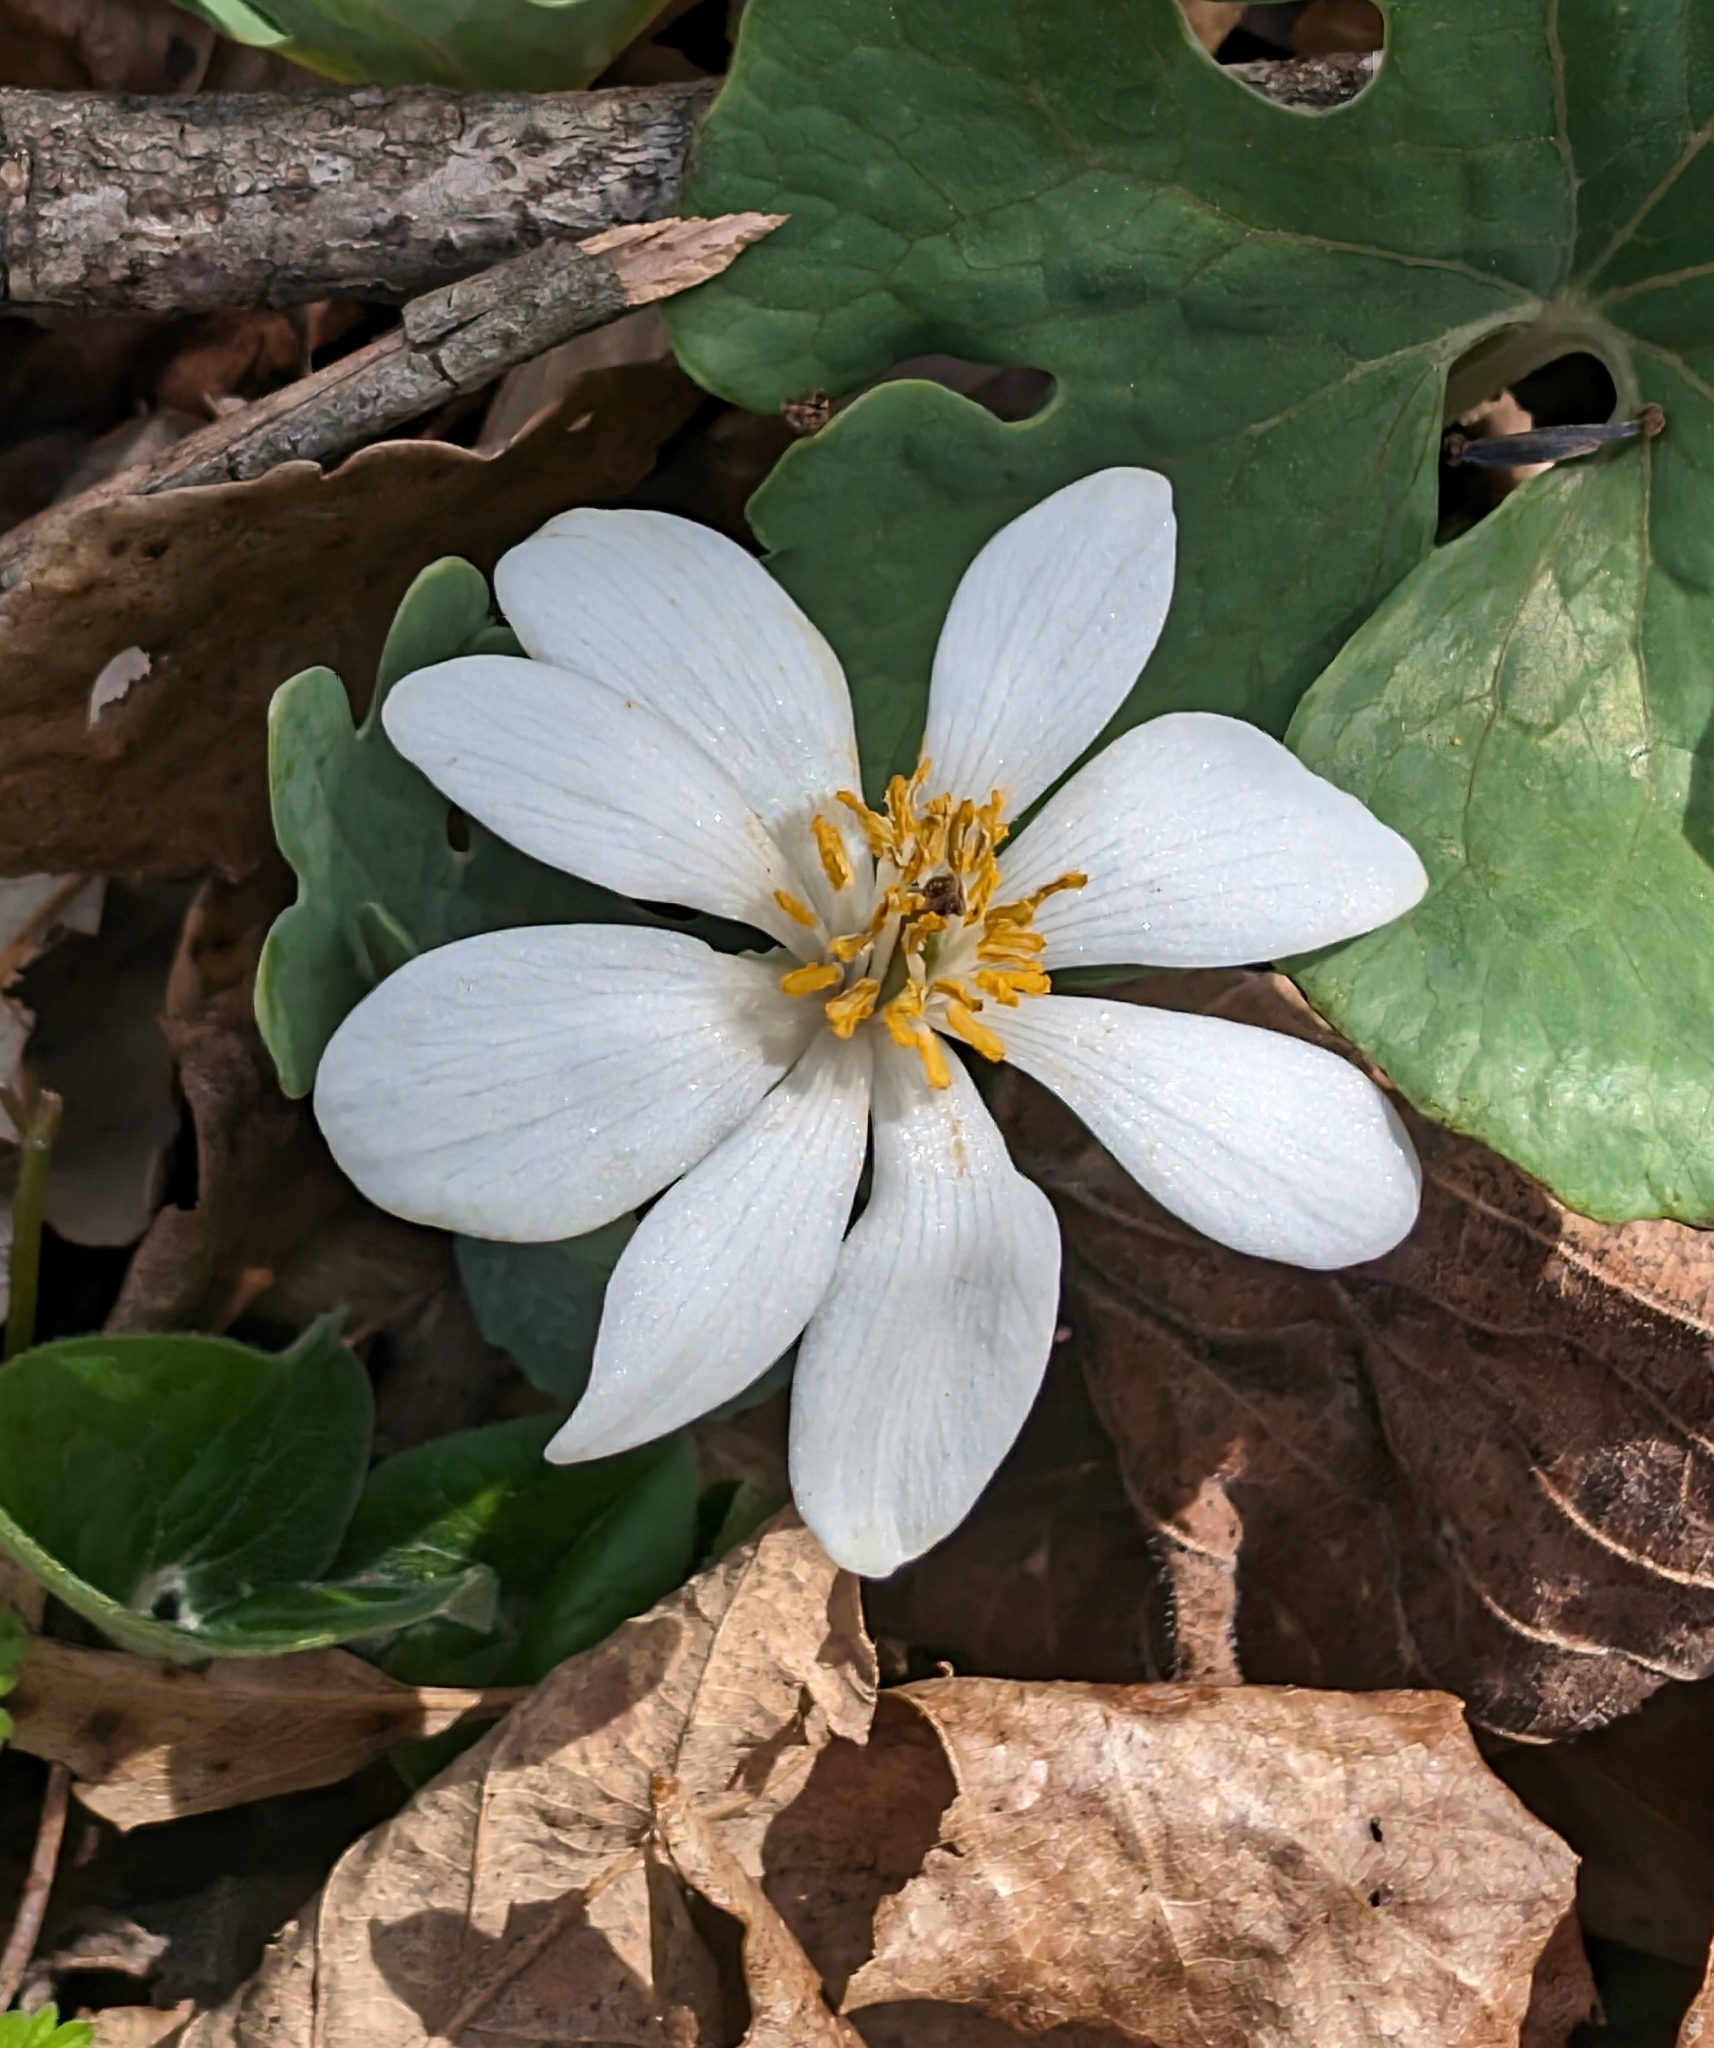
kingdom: Plantae
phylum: Tracheophyta
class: Magnoliopsida
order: Ranunculales
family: Papaveraceae
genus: Sanguinaria
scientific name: Sanguinaria canadensis
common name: Bloodroot
